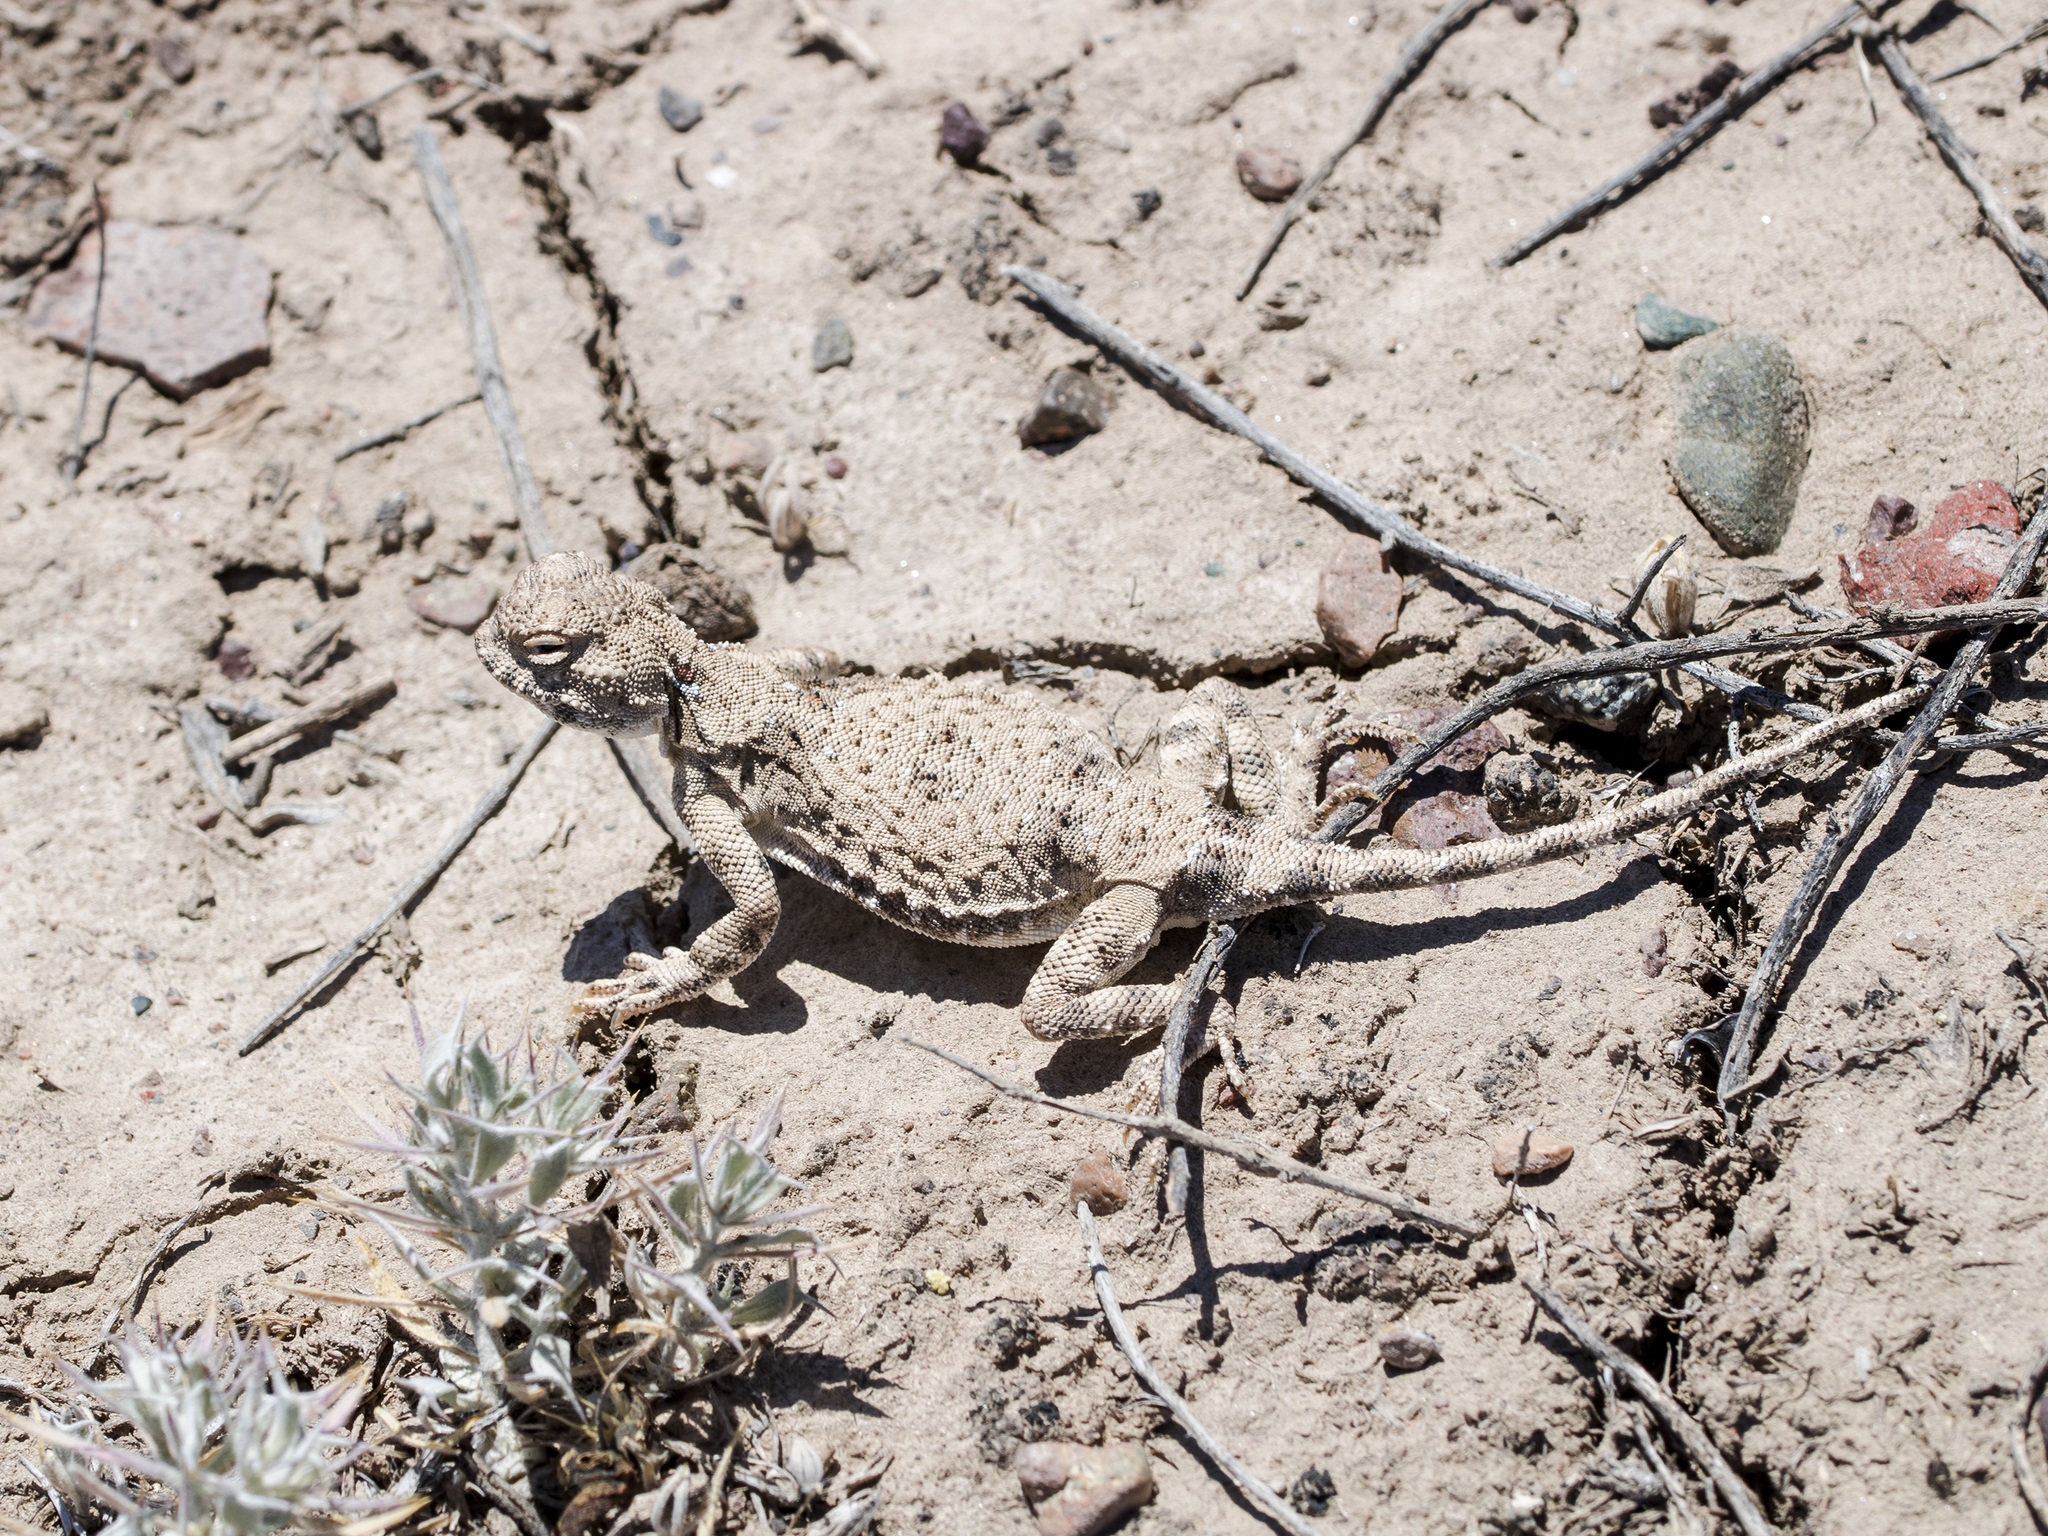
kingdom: Animalia
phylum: Chordata
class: Squamata
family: Agamidae
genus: Phrynocephalus
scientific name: Phrynocephalus helioscopus
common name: Sunwatcher
